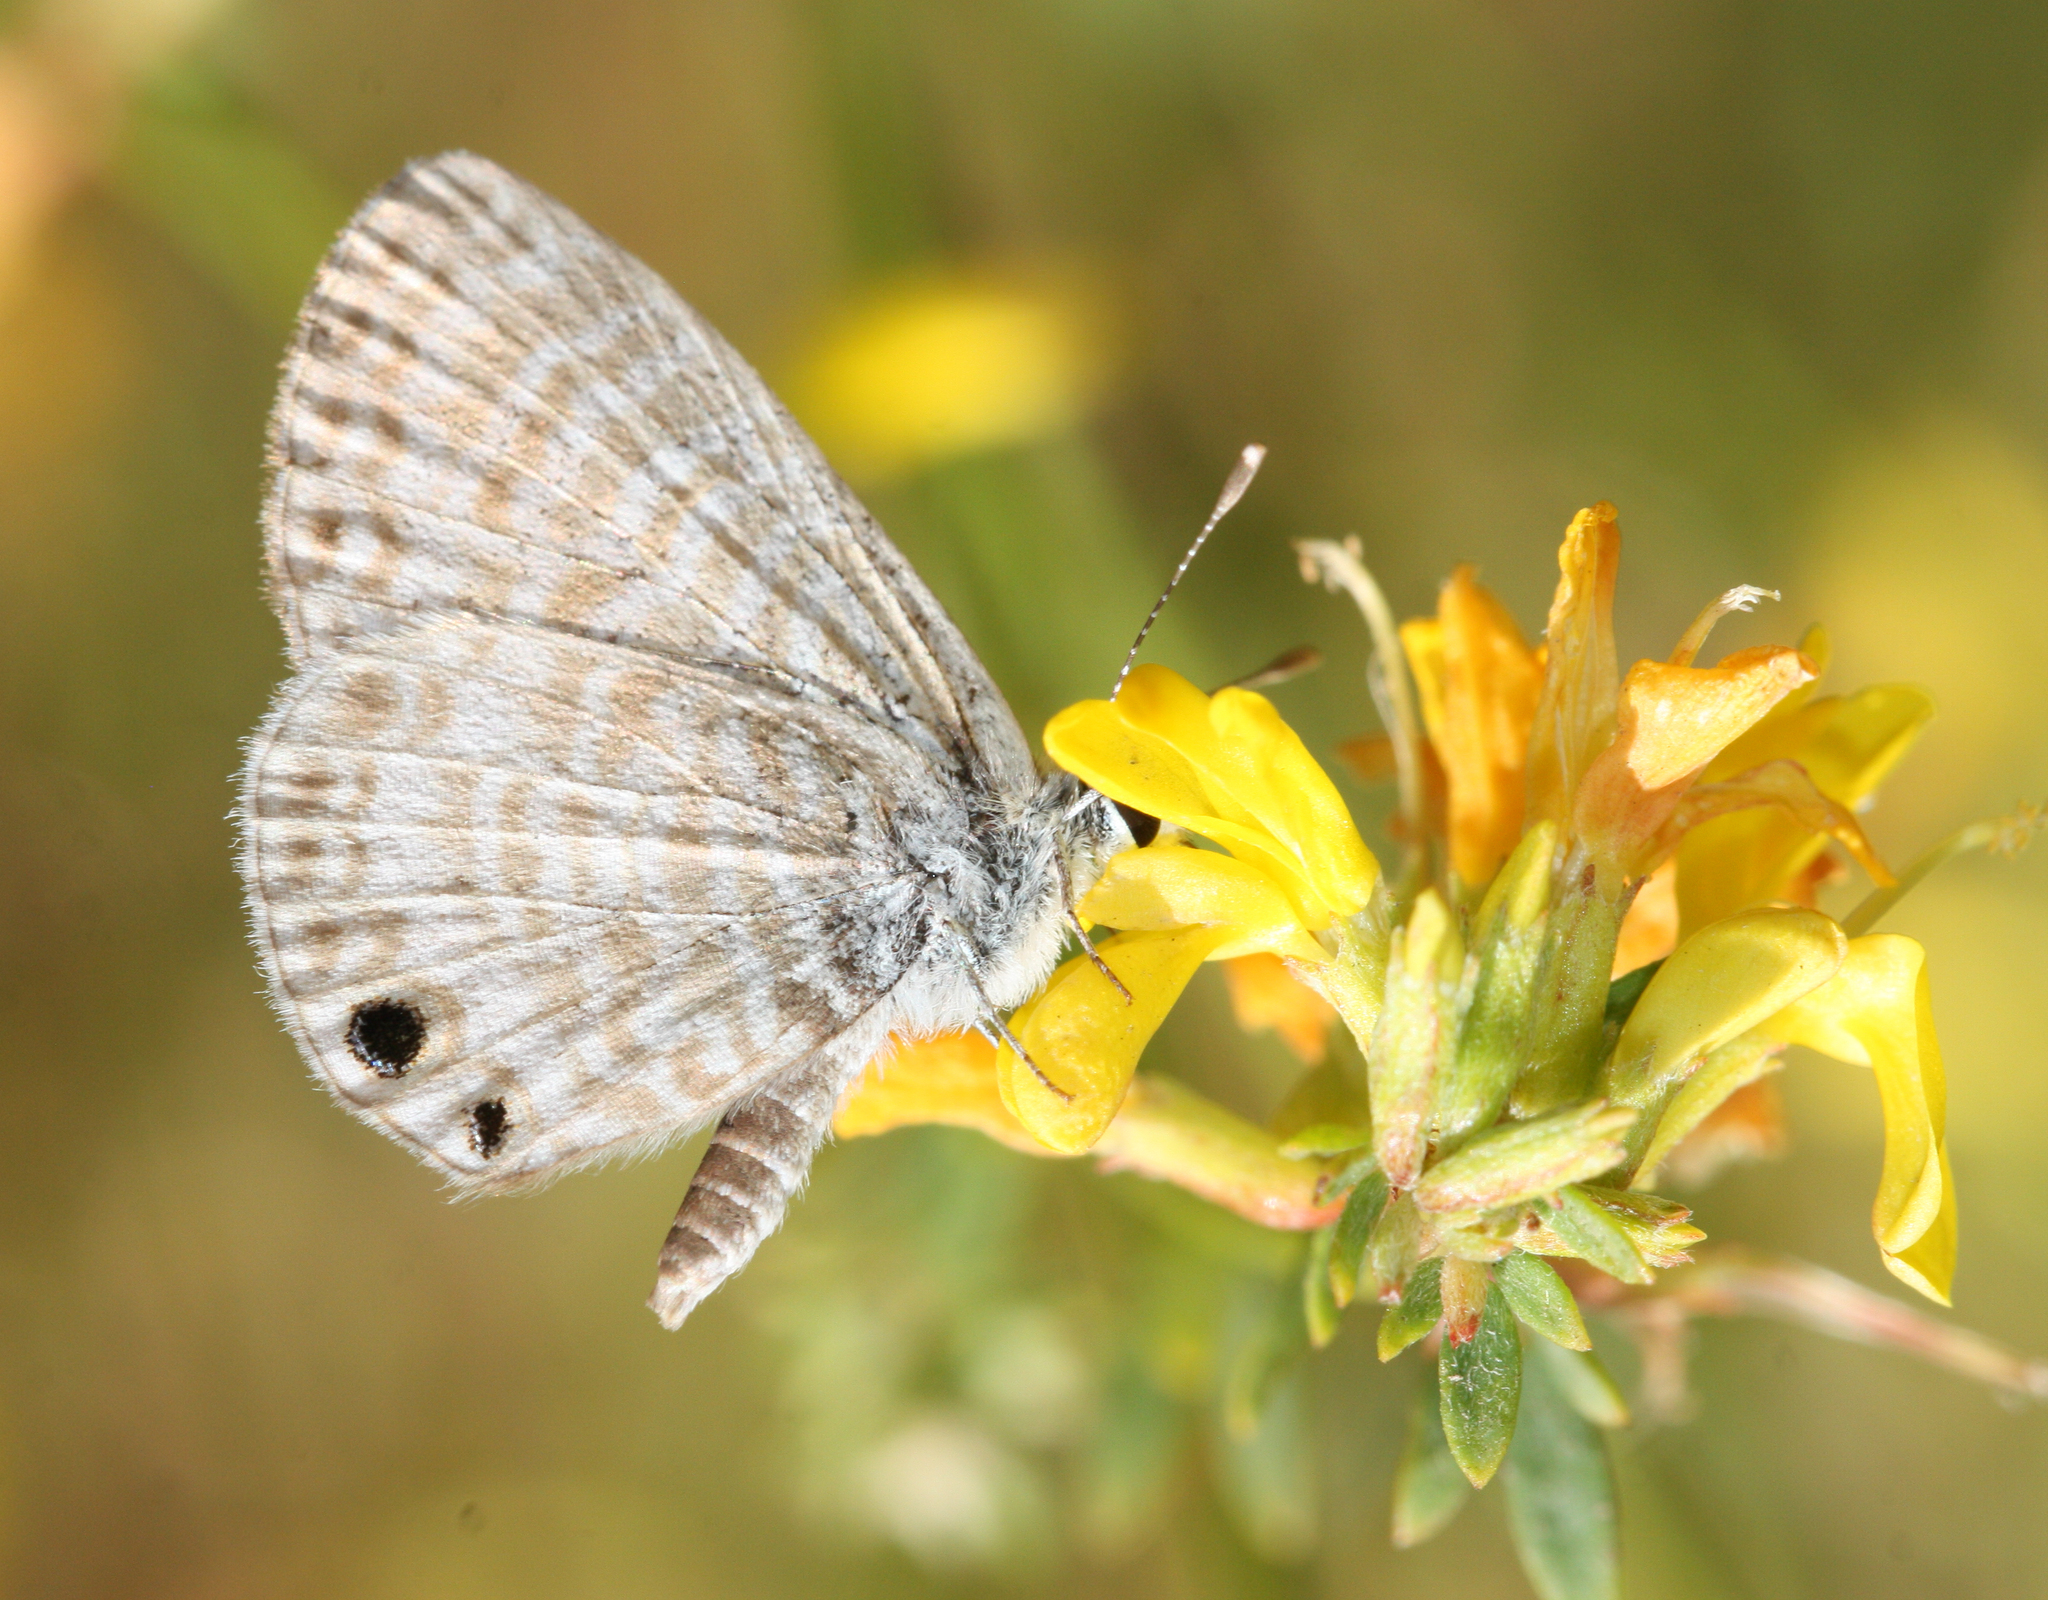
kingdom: Animalia
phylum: Arthropoda
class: Insecta
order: Lepidoptera
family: Lycaenidae
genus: Leptotes
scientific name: Leptotes marina
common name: Marine blue
